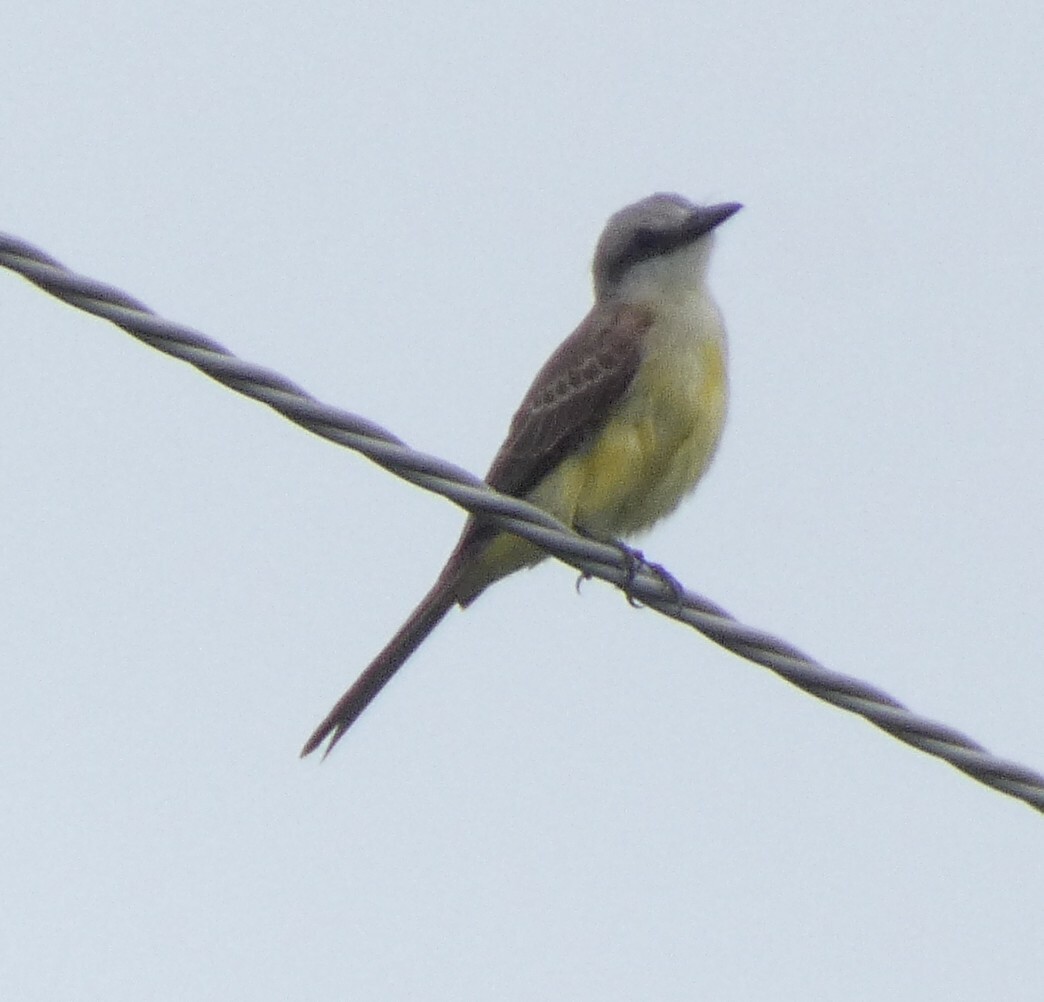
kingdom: Animalia
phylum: Chordata
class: Aves
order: Passeriformes
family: Tyrannidae
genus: Tyrannus
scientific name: Tyrannus albogularis
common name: White-throated kingbird
